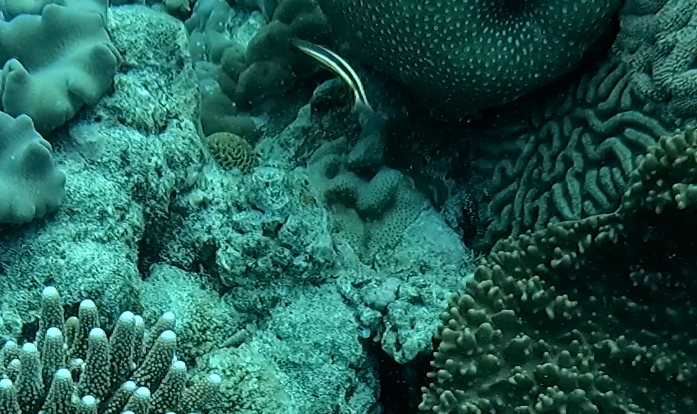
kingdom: Animalia
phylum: Chordata
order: Perciformes
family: Cirrhitidae
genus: Paracirrhites
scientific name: Paracirrhites forsteri
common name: Freckled hawkfish
